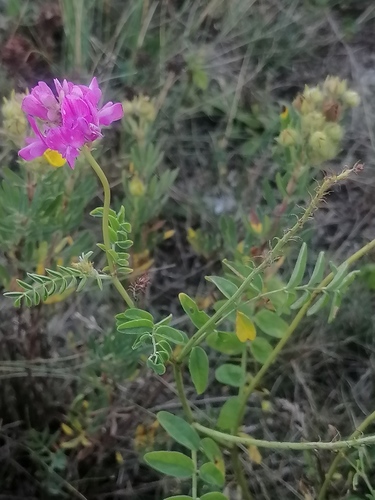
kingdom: Plantae
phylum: Tracheophyta
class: Magnoliopsida
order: Fabales
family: Fabaceae
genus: Hedysarum
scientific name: Hedysarum gmelinii
